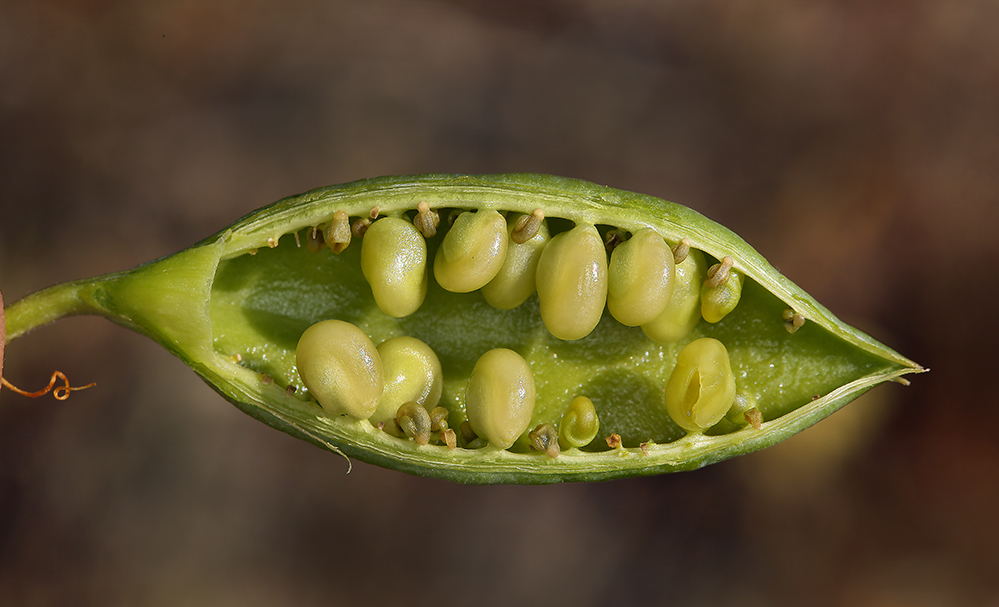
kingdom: Plantae
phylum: Tracheophyta
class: Magnoliopsida
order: Brassicales
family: Cleomaceae
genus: Cleomella
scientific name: Cleomella arborea
